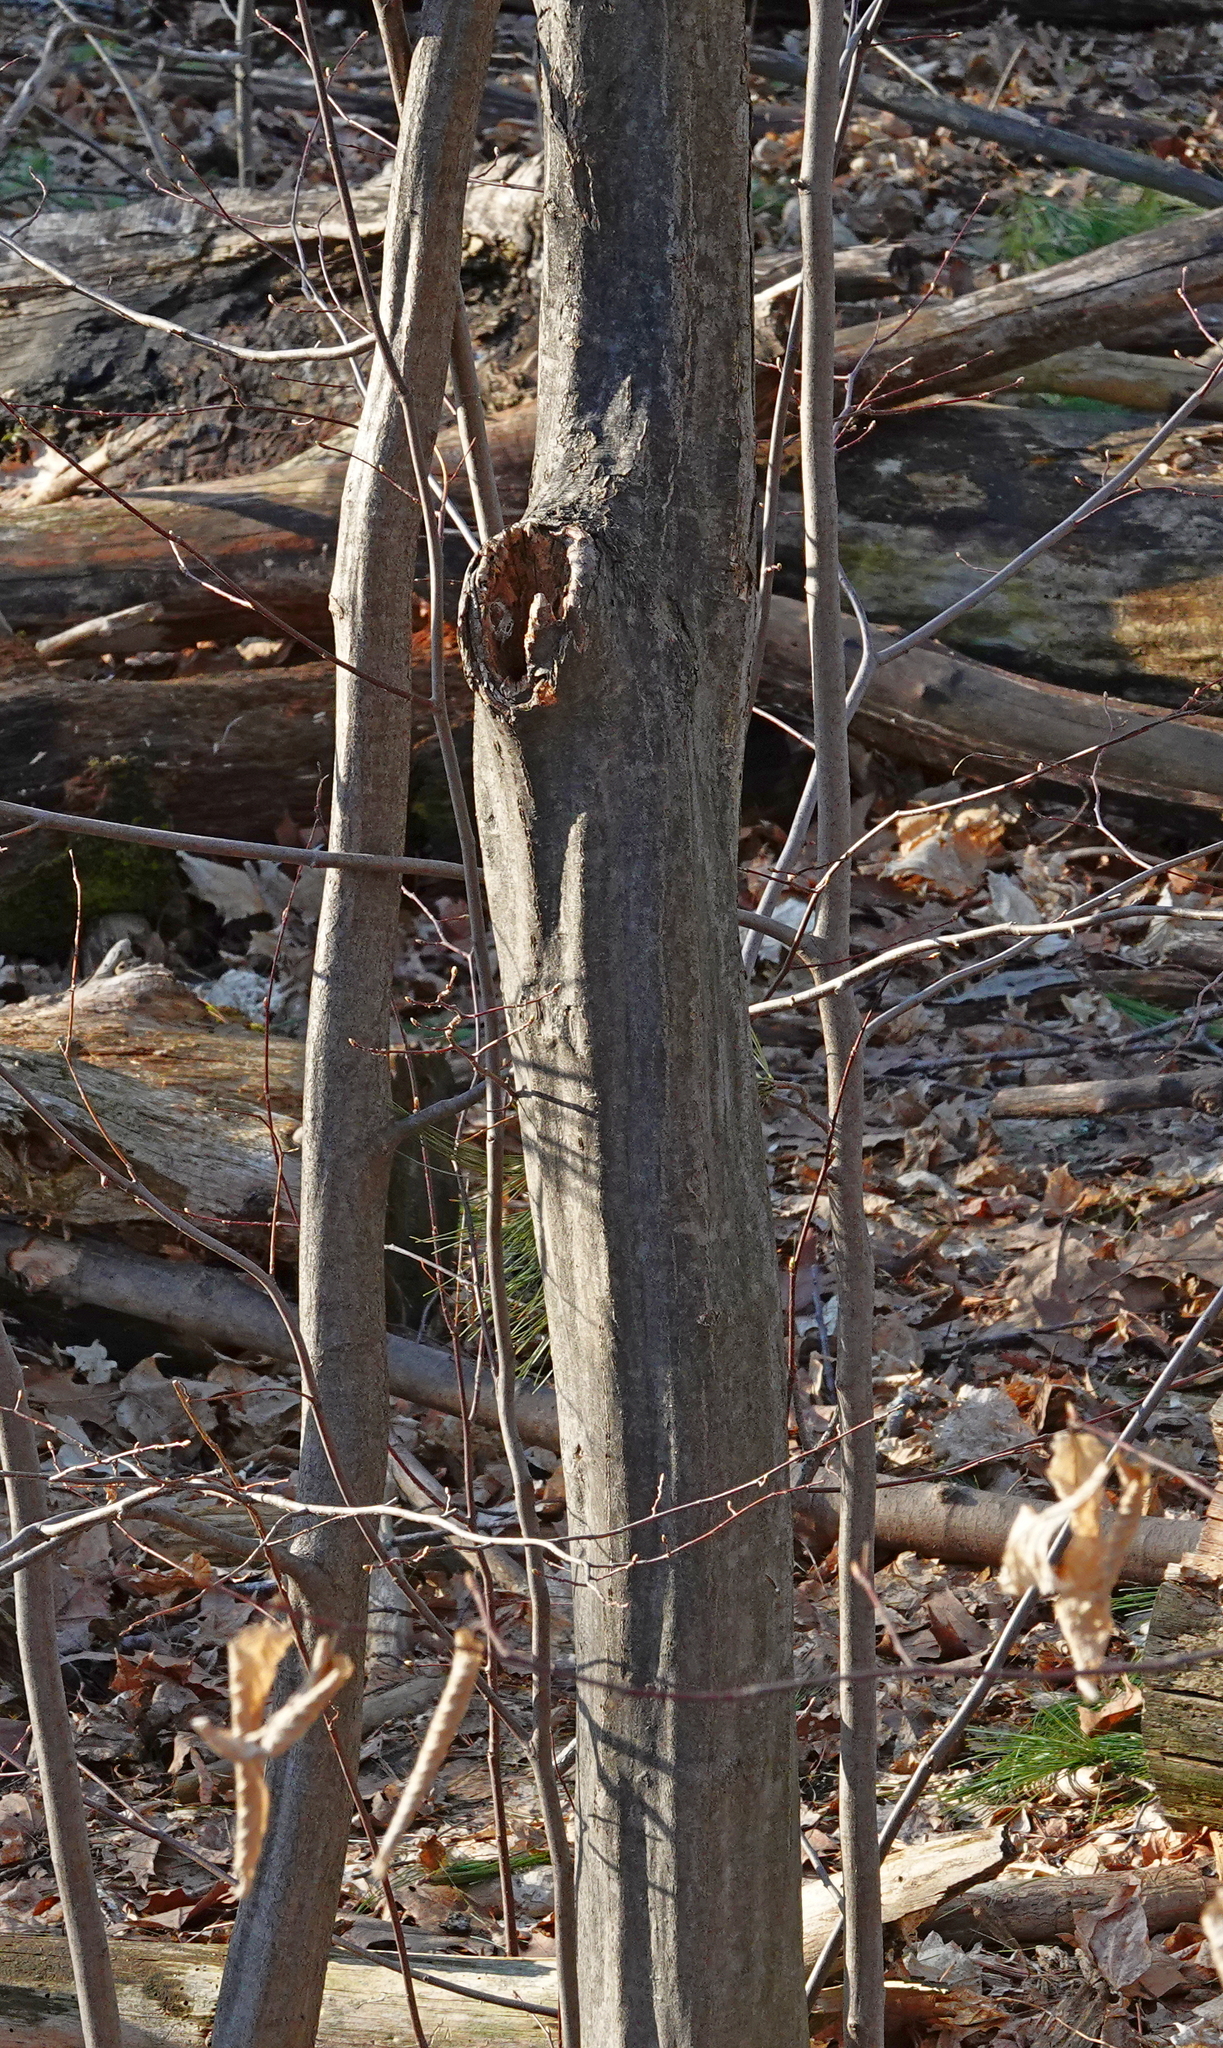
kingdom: Plantae
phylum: Tracheophyta
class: Magnoliopsida
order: Fagales
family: Betulaceae
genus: Carpinus
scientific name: Carpinus caroliniana
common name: American hornbeam
